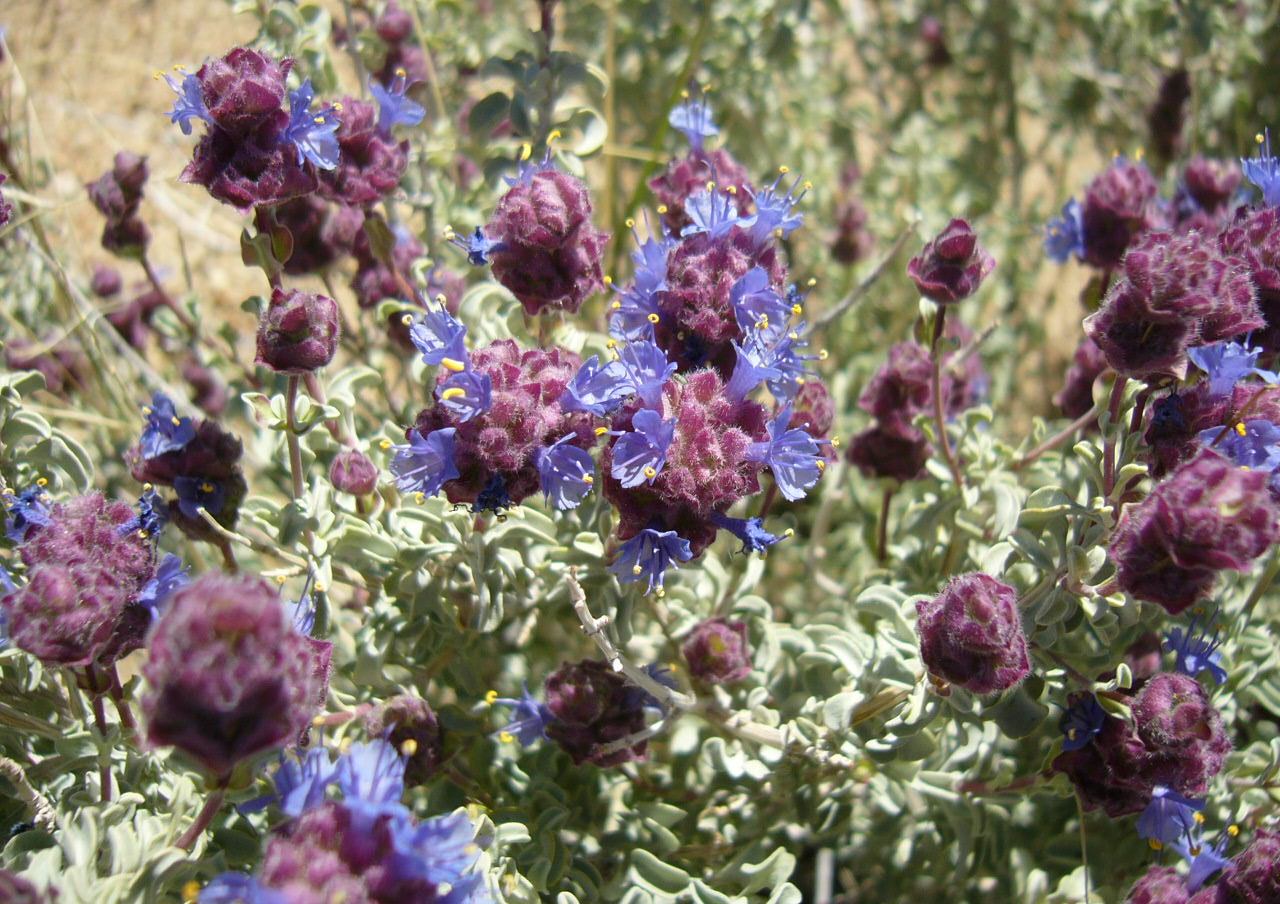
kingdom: Plantae
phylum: Tracheophyta
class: Magnoliopsida
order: Lamiales
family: Lamiaceae
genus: Salvia
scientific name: Salvia dorrii
